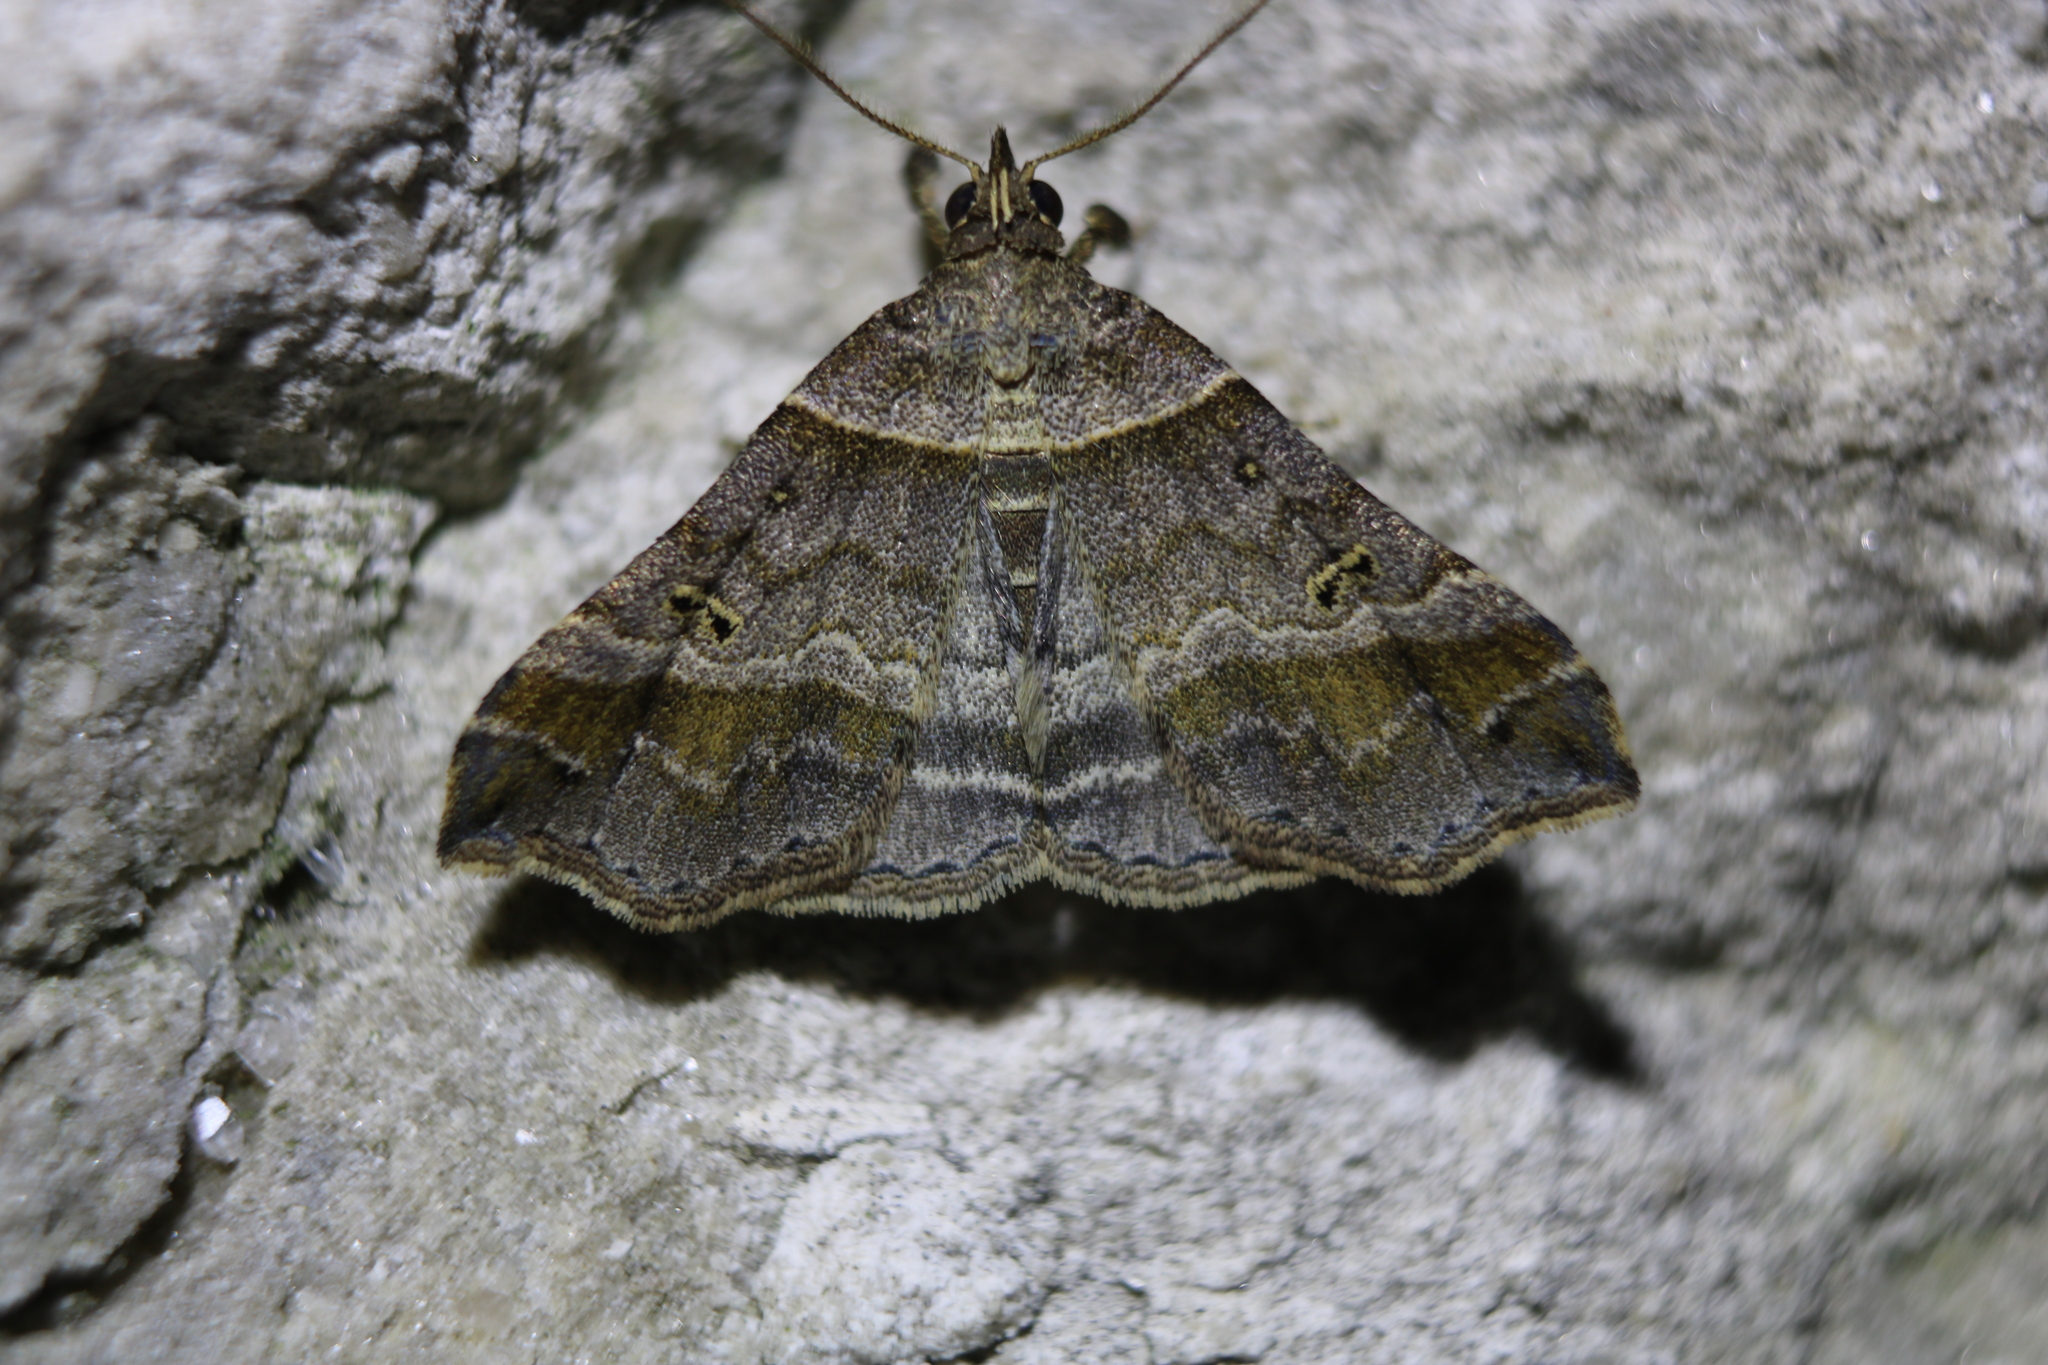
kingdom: Animalia
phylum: Arthropoda
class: Insecta
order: Lepidoptera
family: Erebidae
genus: Phaeolita
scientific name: Phaeolita pyramusalis
